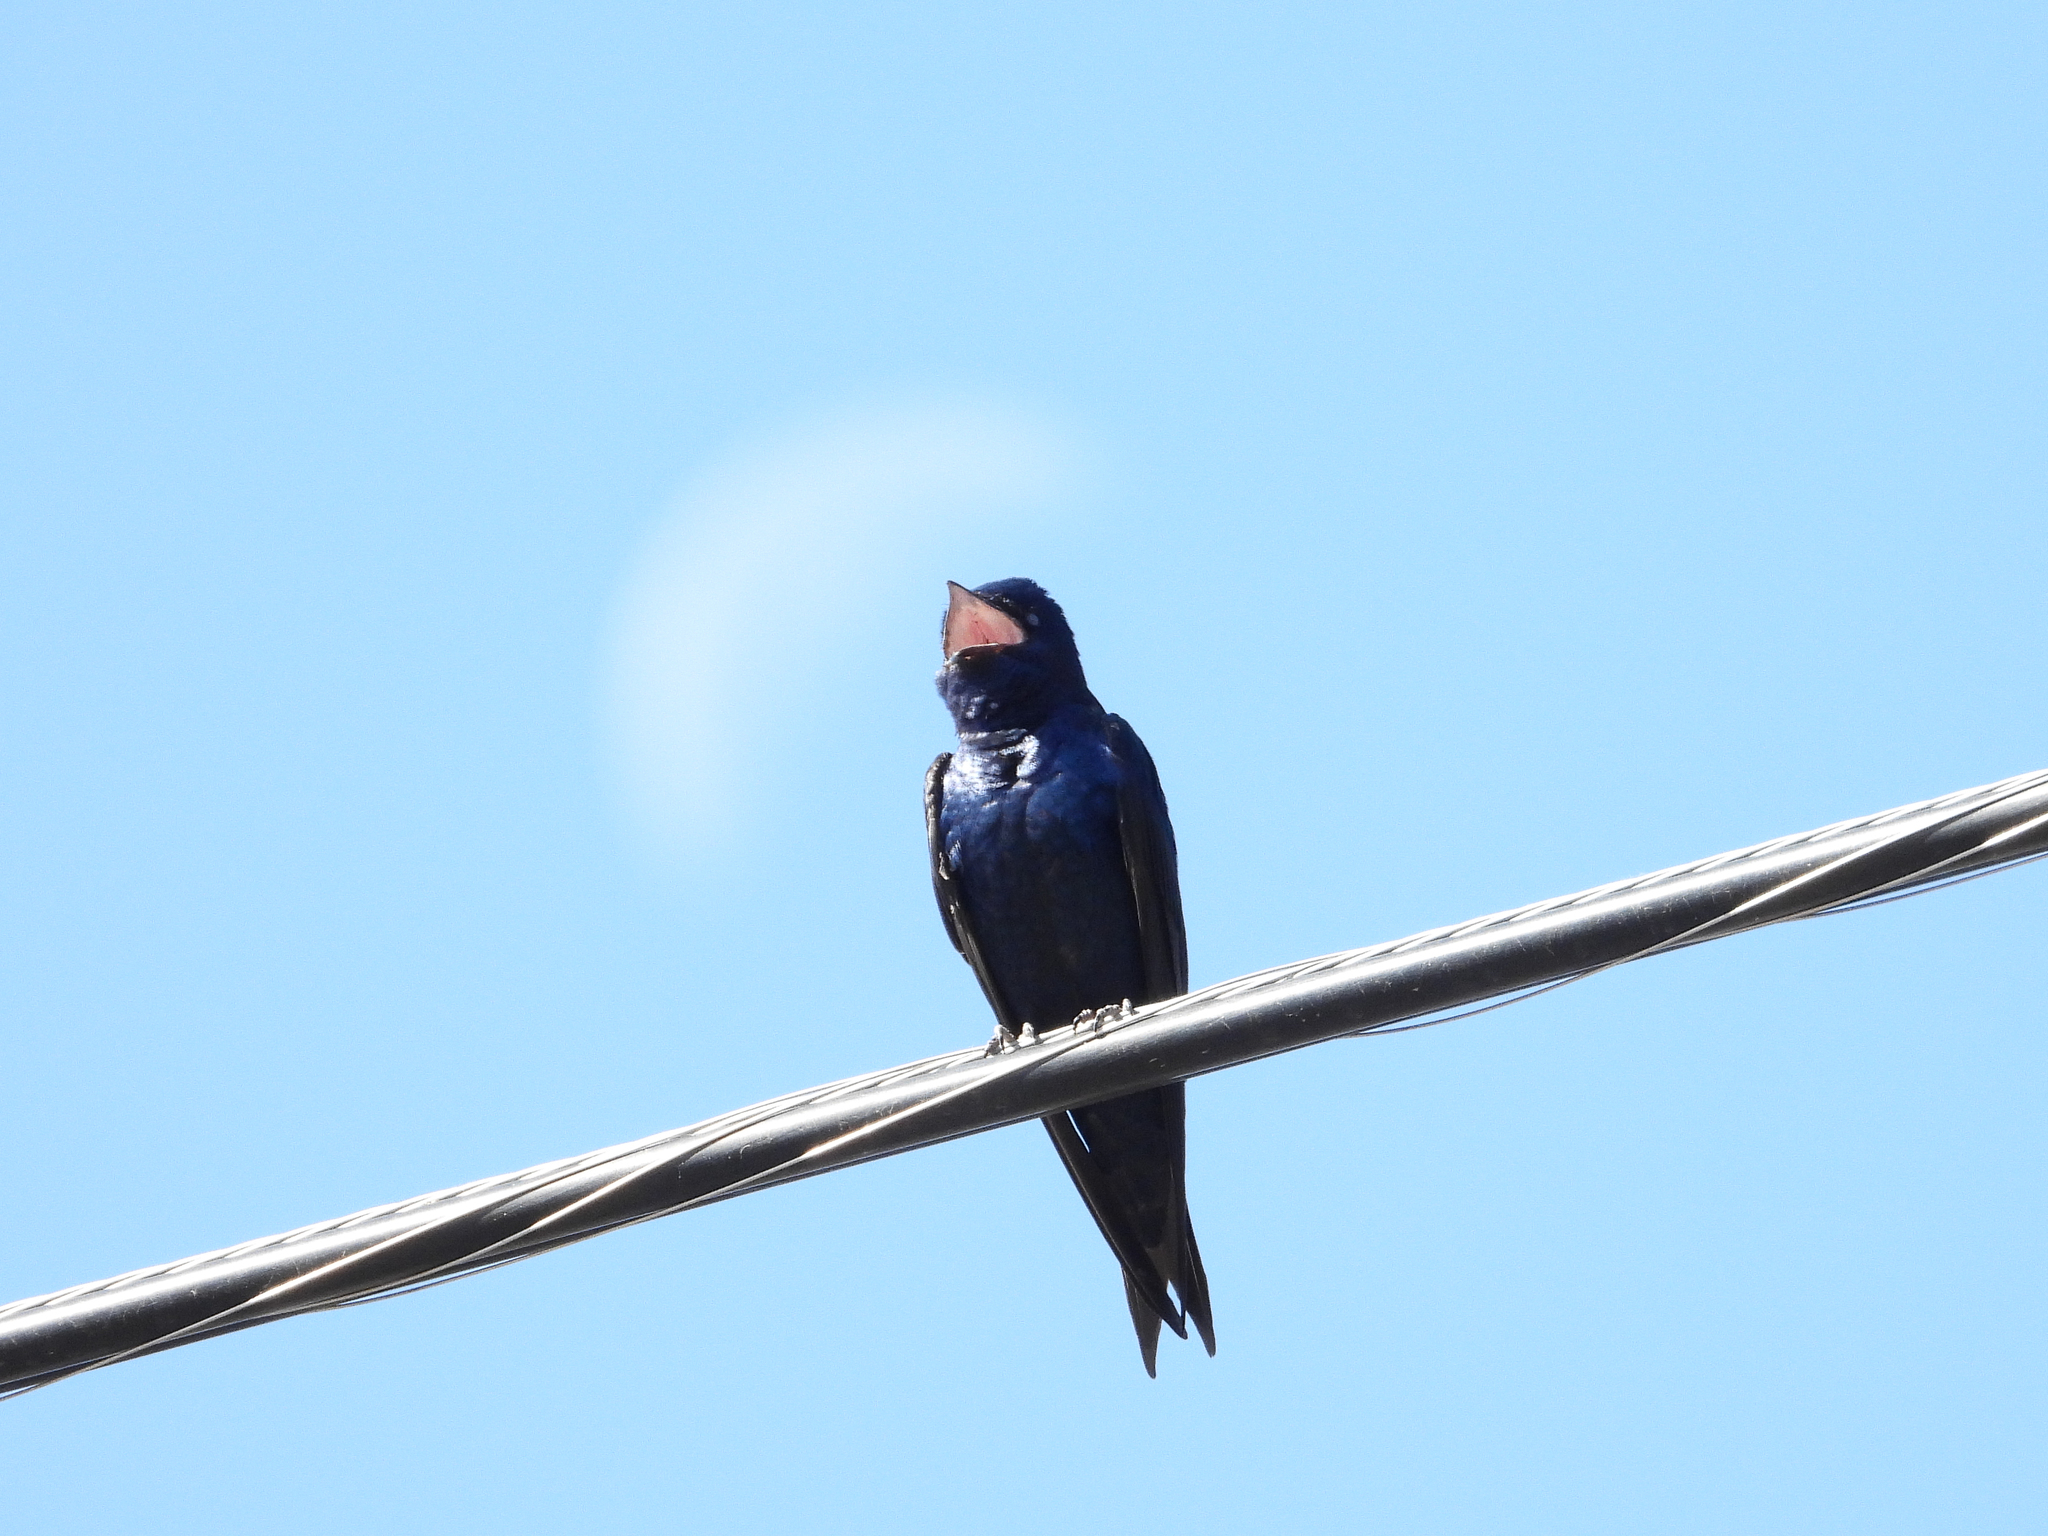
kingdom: Animalia
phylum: Chordata
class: Aves
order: Passeriformes
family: Hirundinidae
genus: Progne
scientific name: Progne subis
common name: Purple martin
